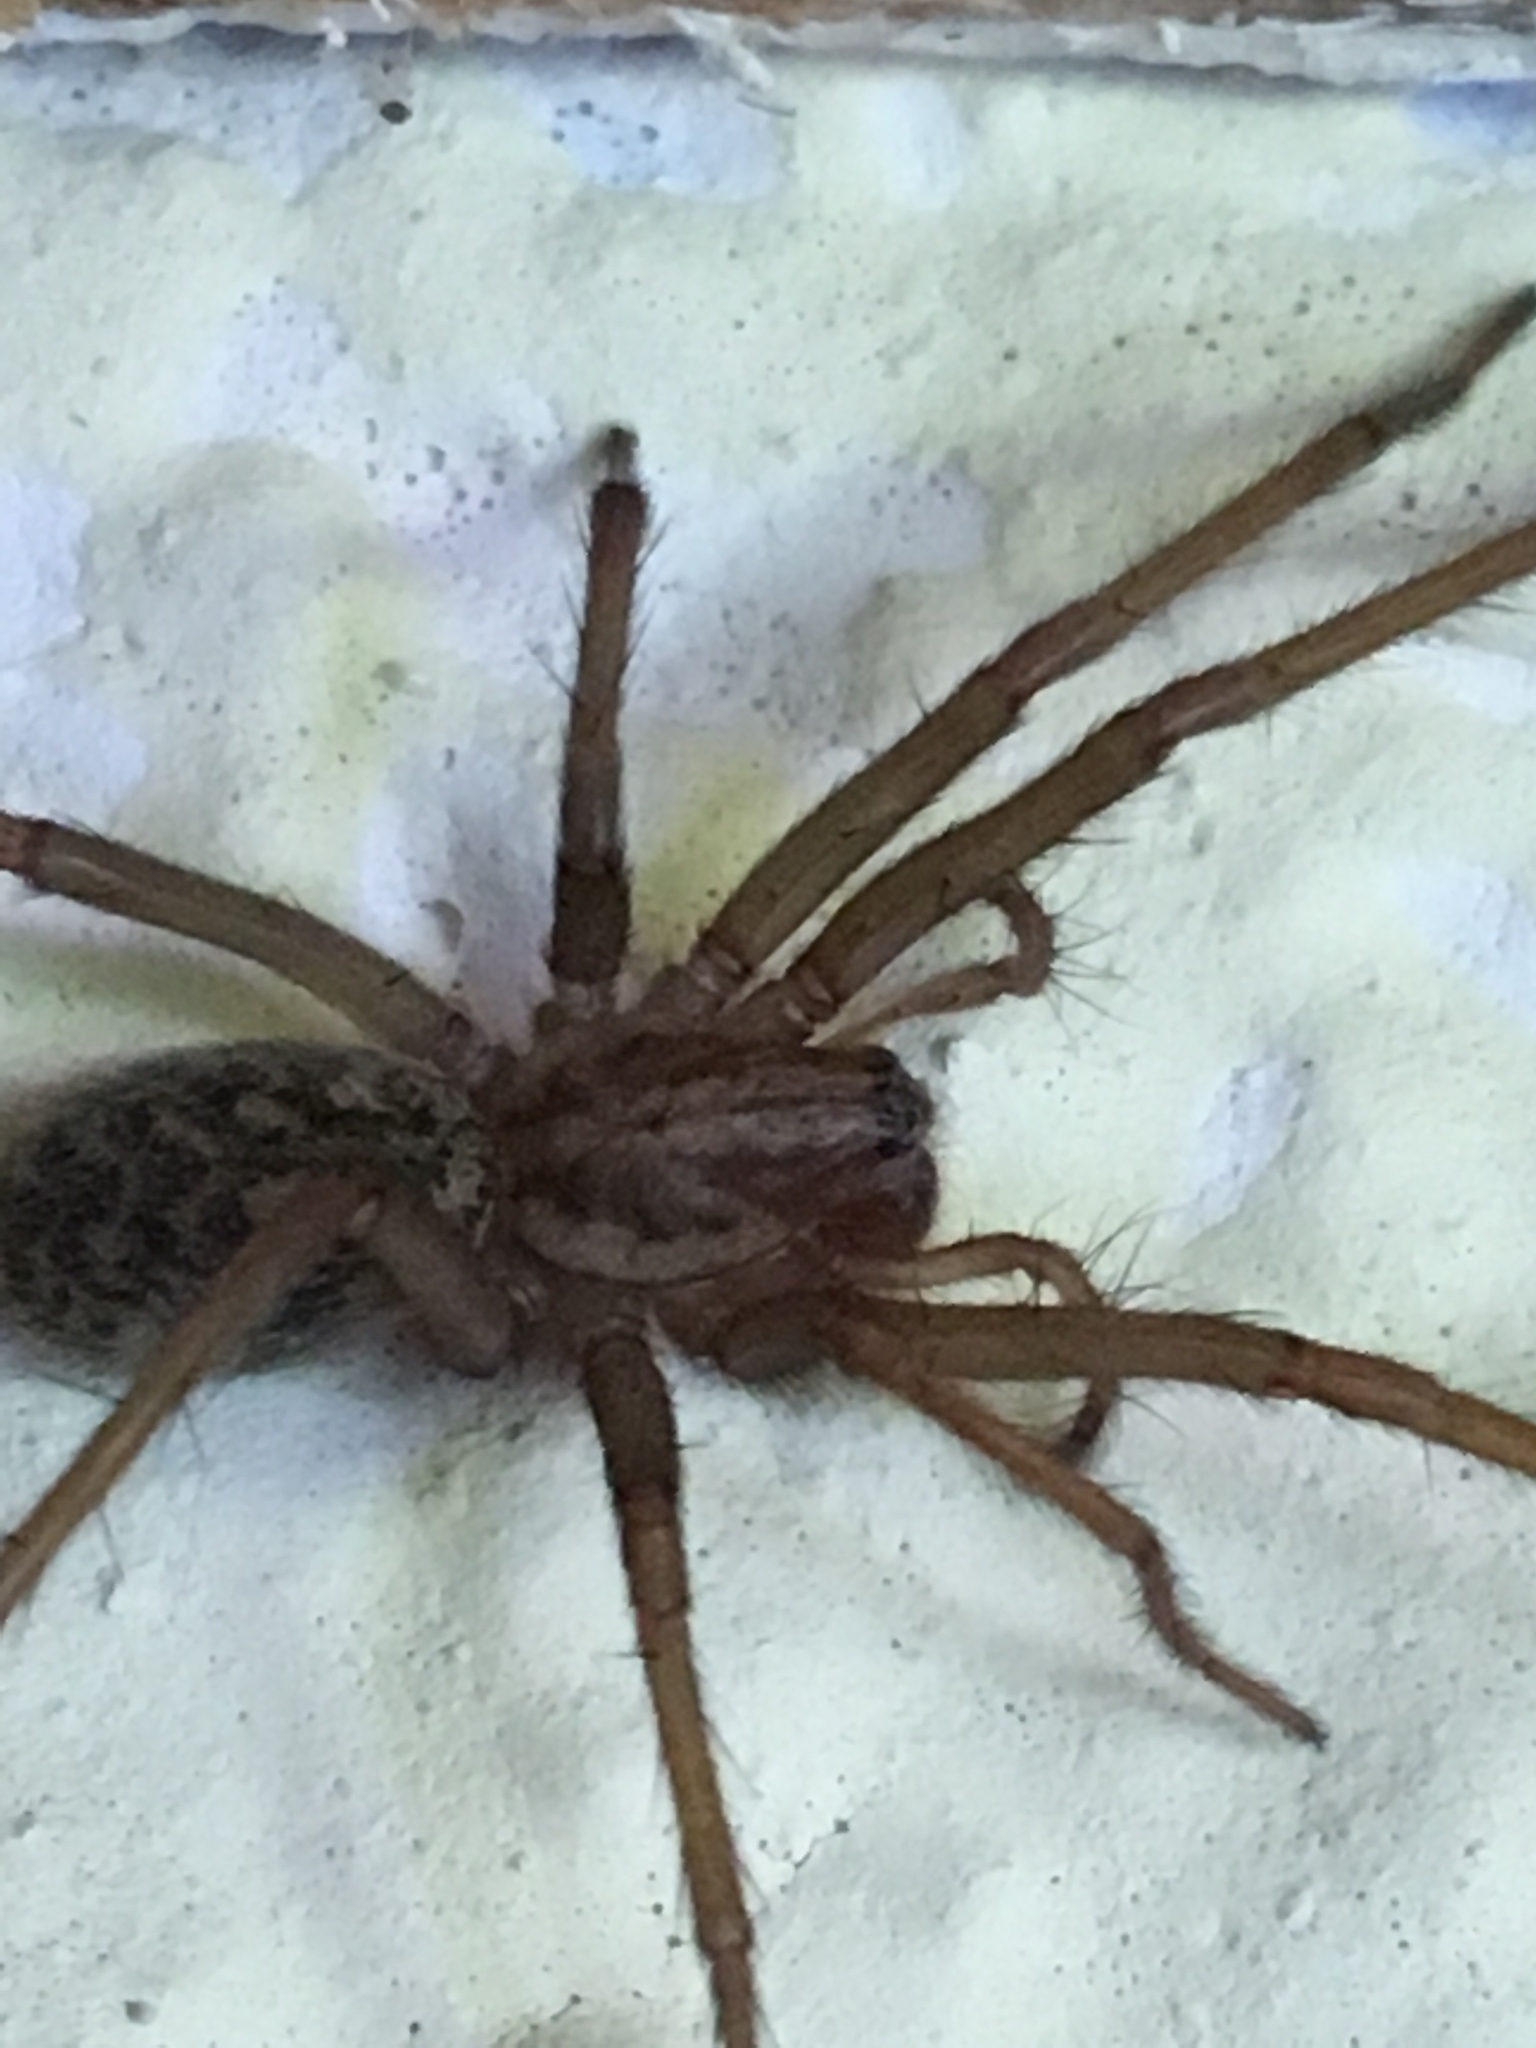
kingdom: Animalia
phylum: Arthropoda
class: Arachnida
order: Araneae
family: Agelenidae
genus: Eratigena
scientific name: Eratigena atrica
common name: Giant house spider
